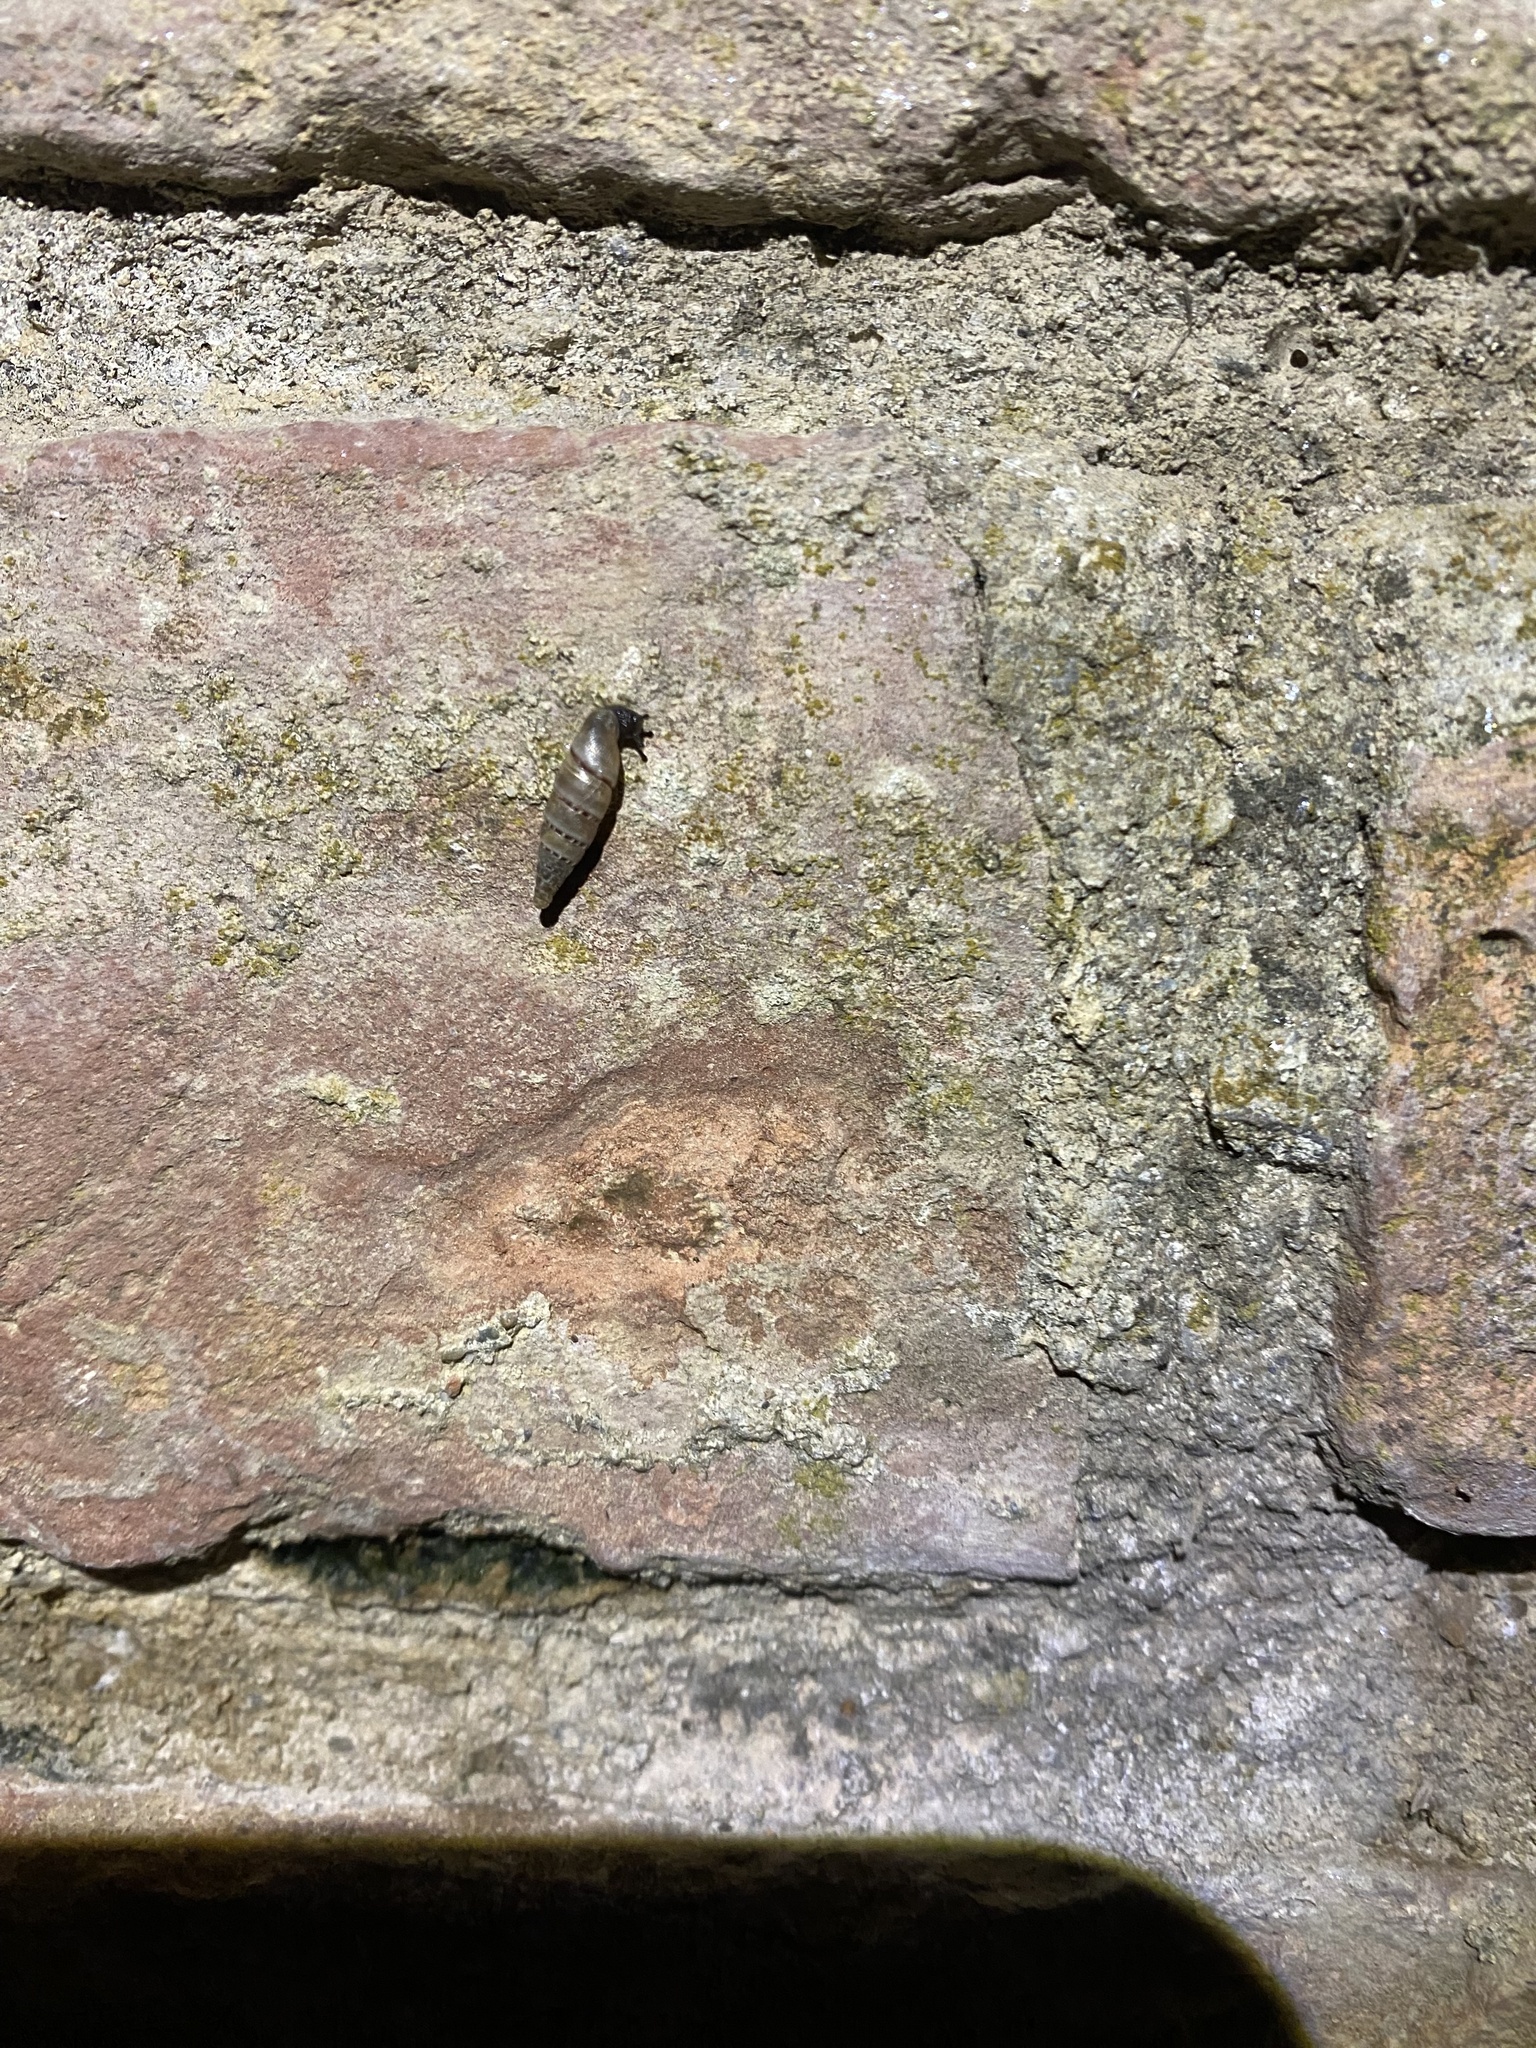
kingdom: Animalia
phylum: Mollusca
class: Gastropoda
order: Stylommatophora
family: Clausiliidae
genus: Papillifera
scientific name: Papillifera papillaris
